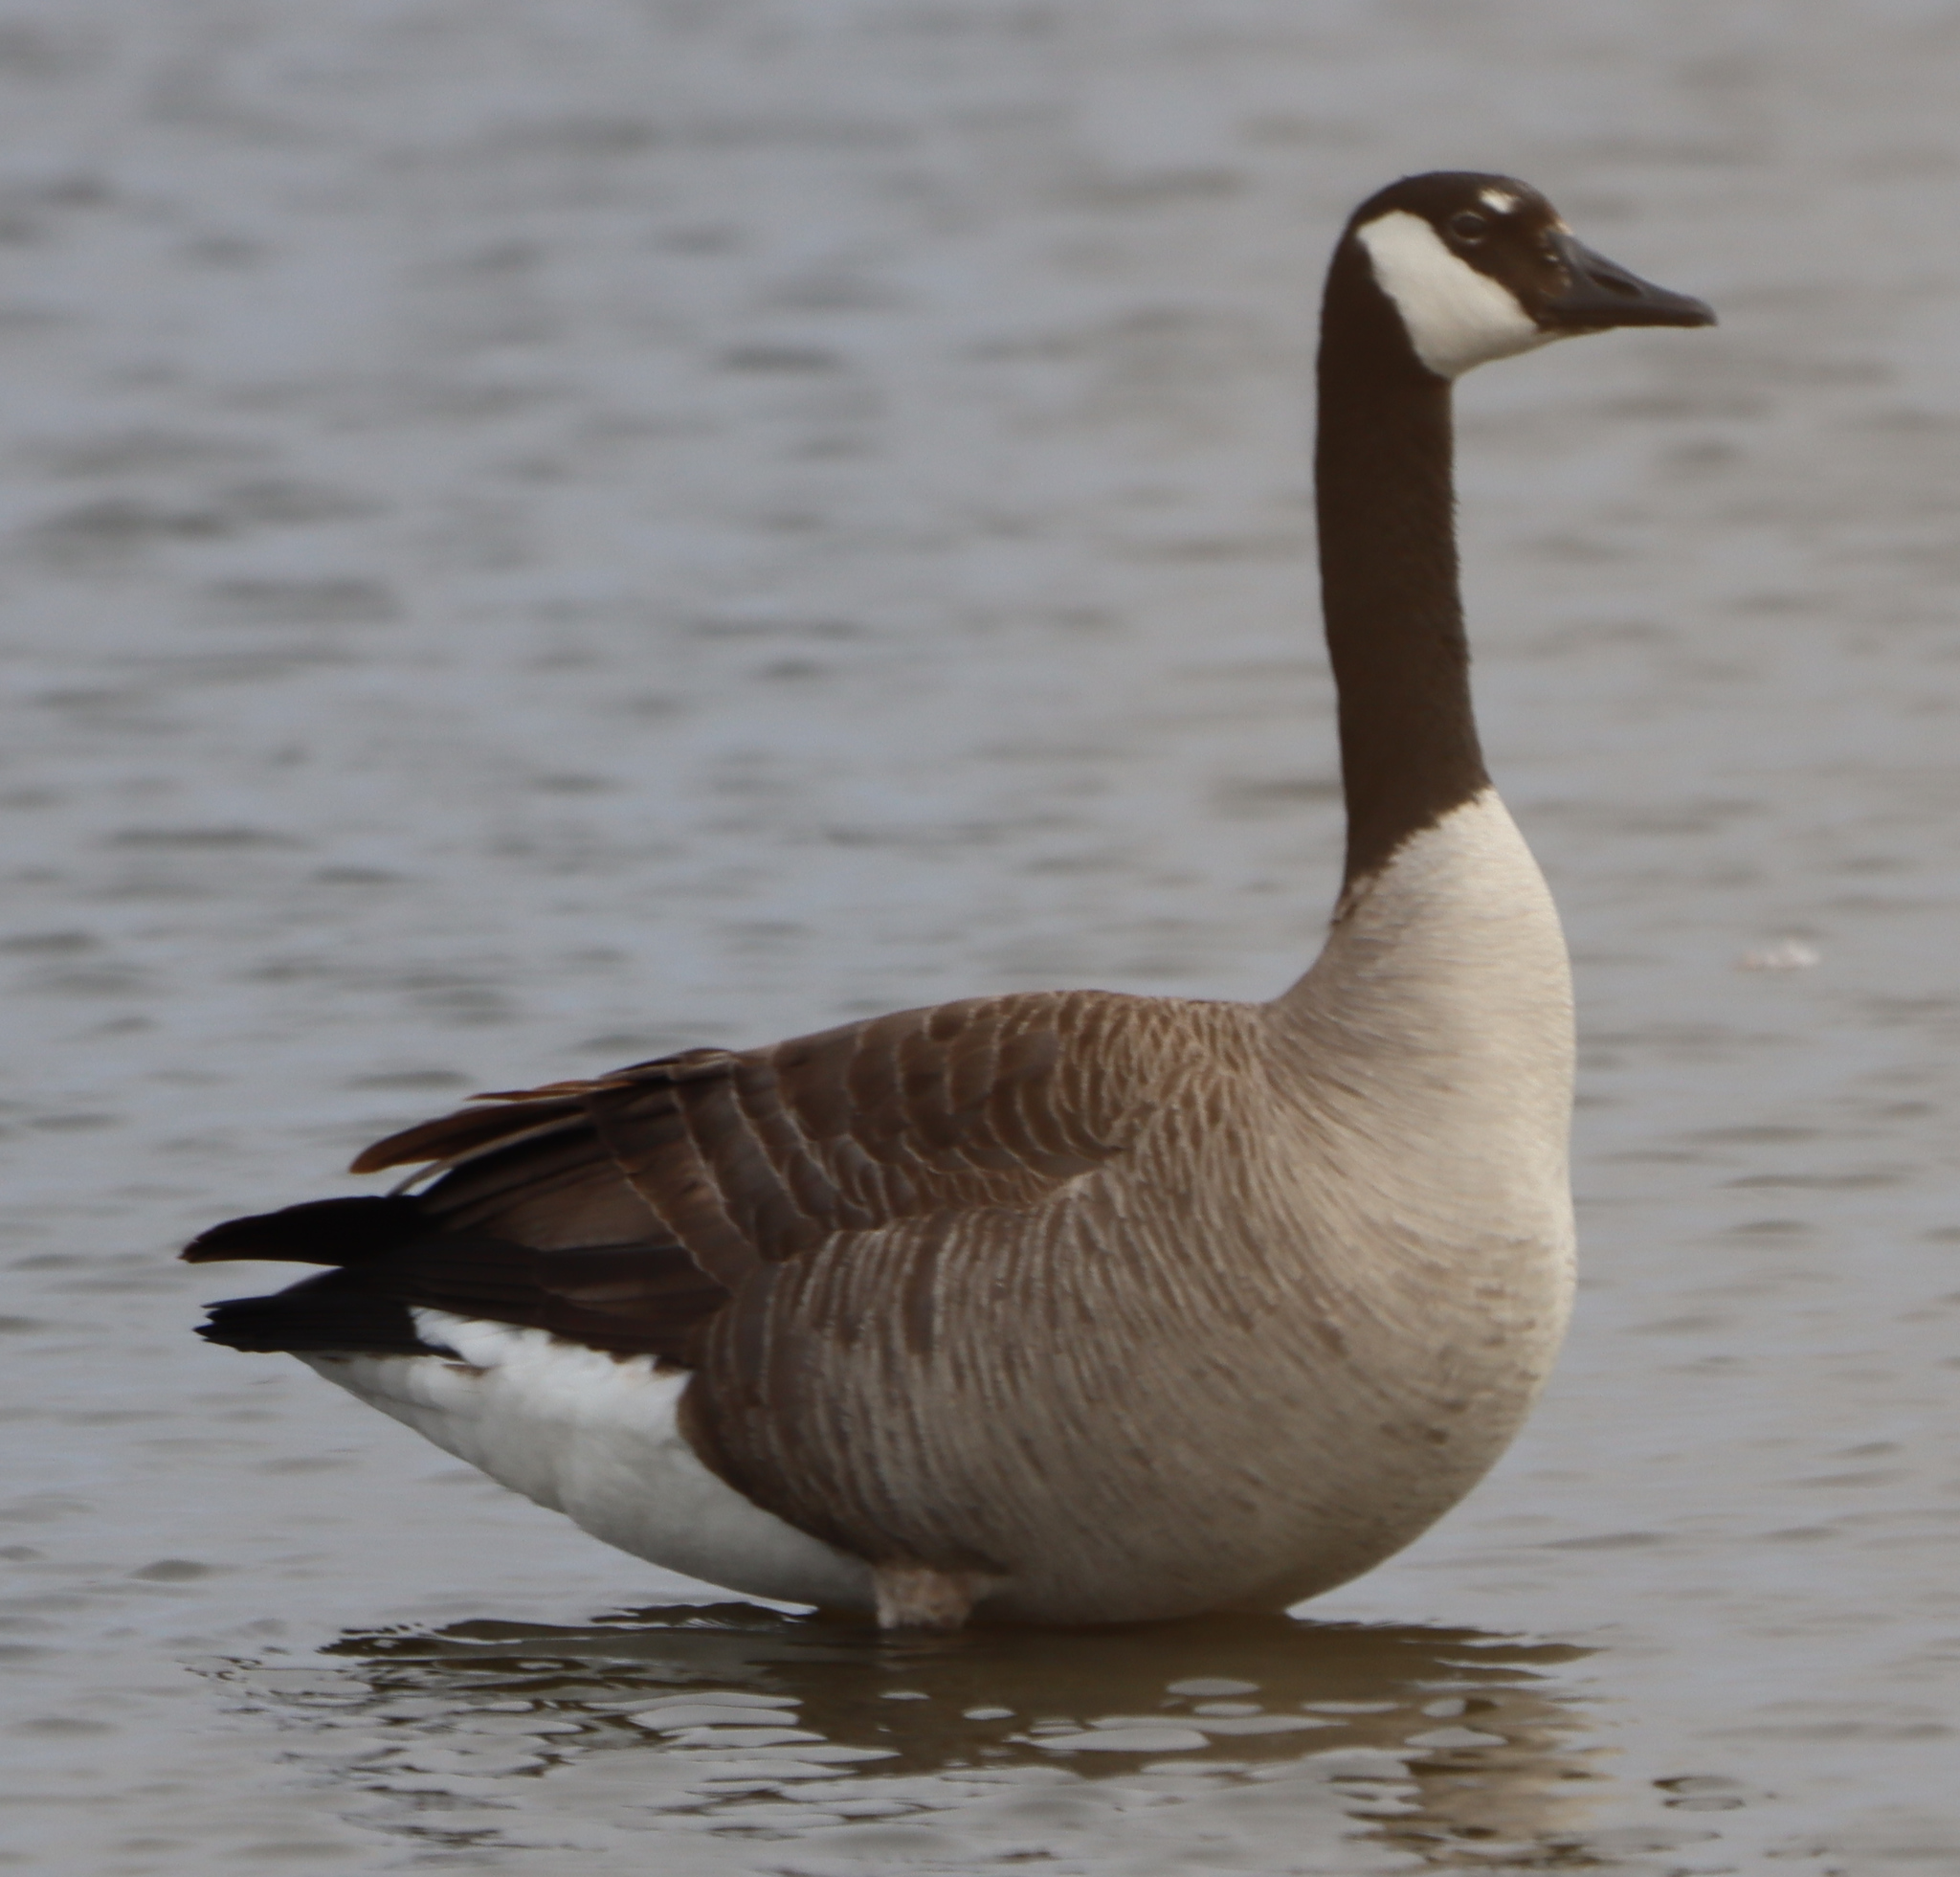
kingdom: Animalia
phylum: Chordata
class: Aves
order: Anseriformes
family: Anatidae
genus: Branta
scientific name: Branta canadensis
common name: Canada goose
